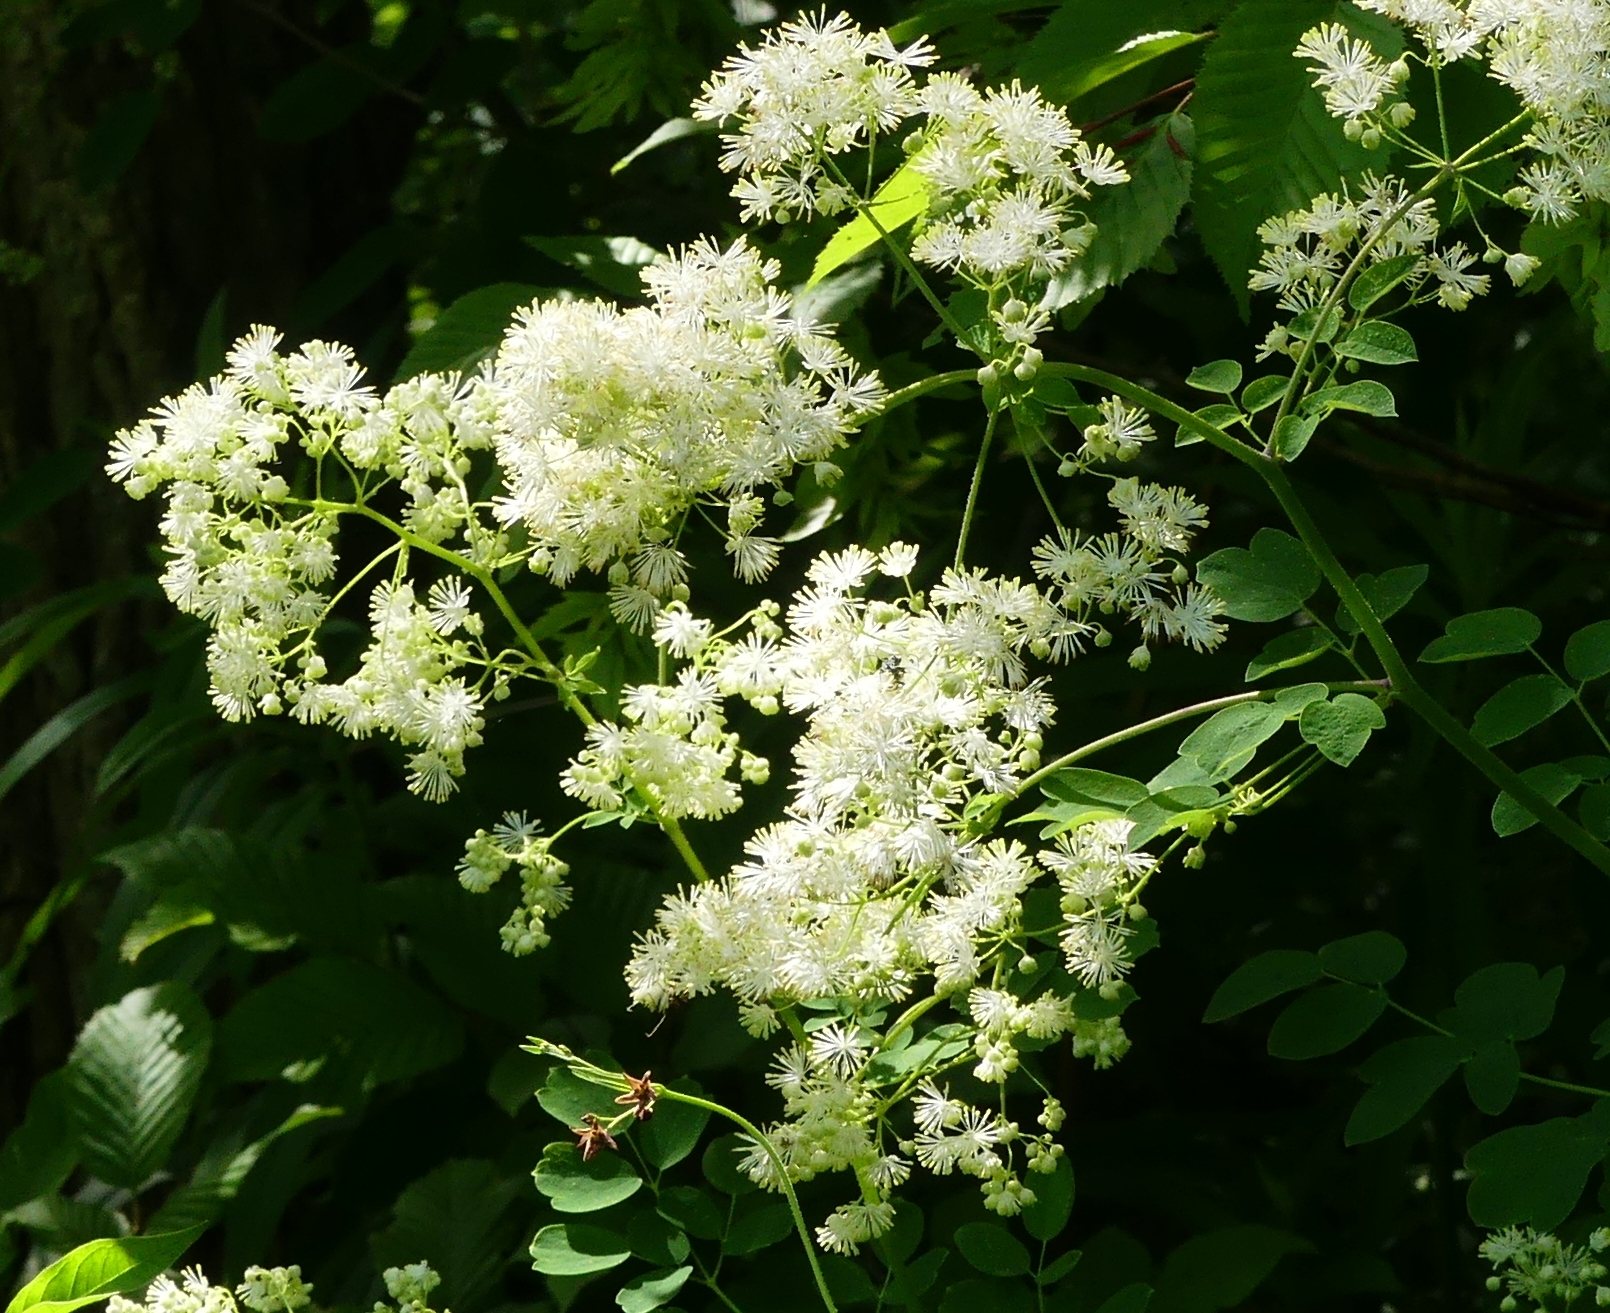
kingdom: Plantae
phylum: Tracheophyta
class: Magnoliopsida
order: Ranunculales
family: Ranunculaceae
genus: Thalictrum
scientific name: Thalictrum pubescens
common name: King-of-the-meadow
